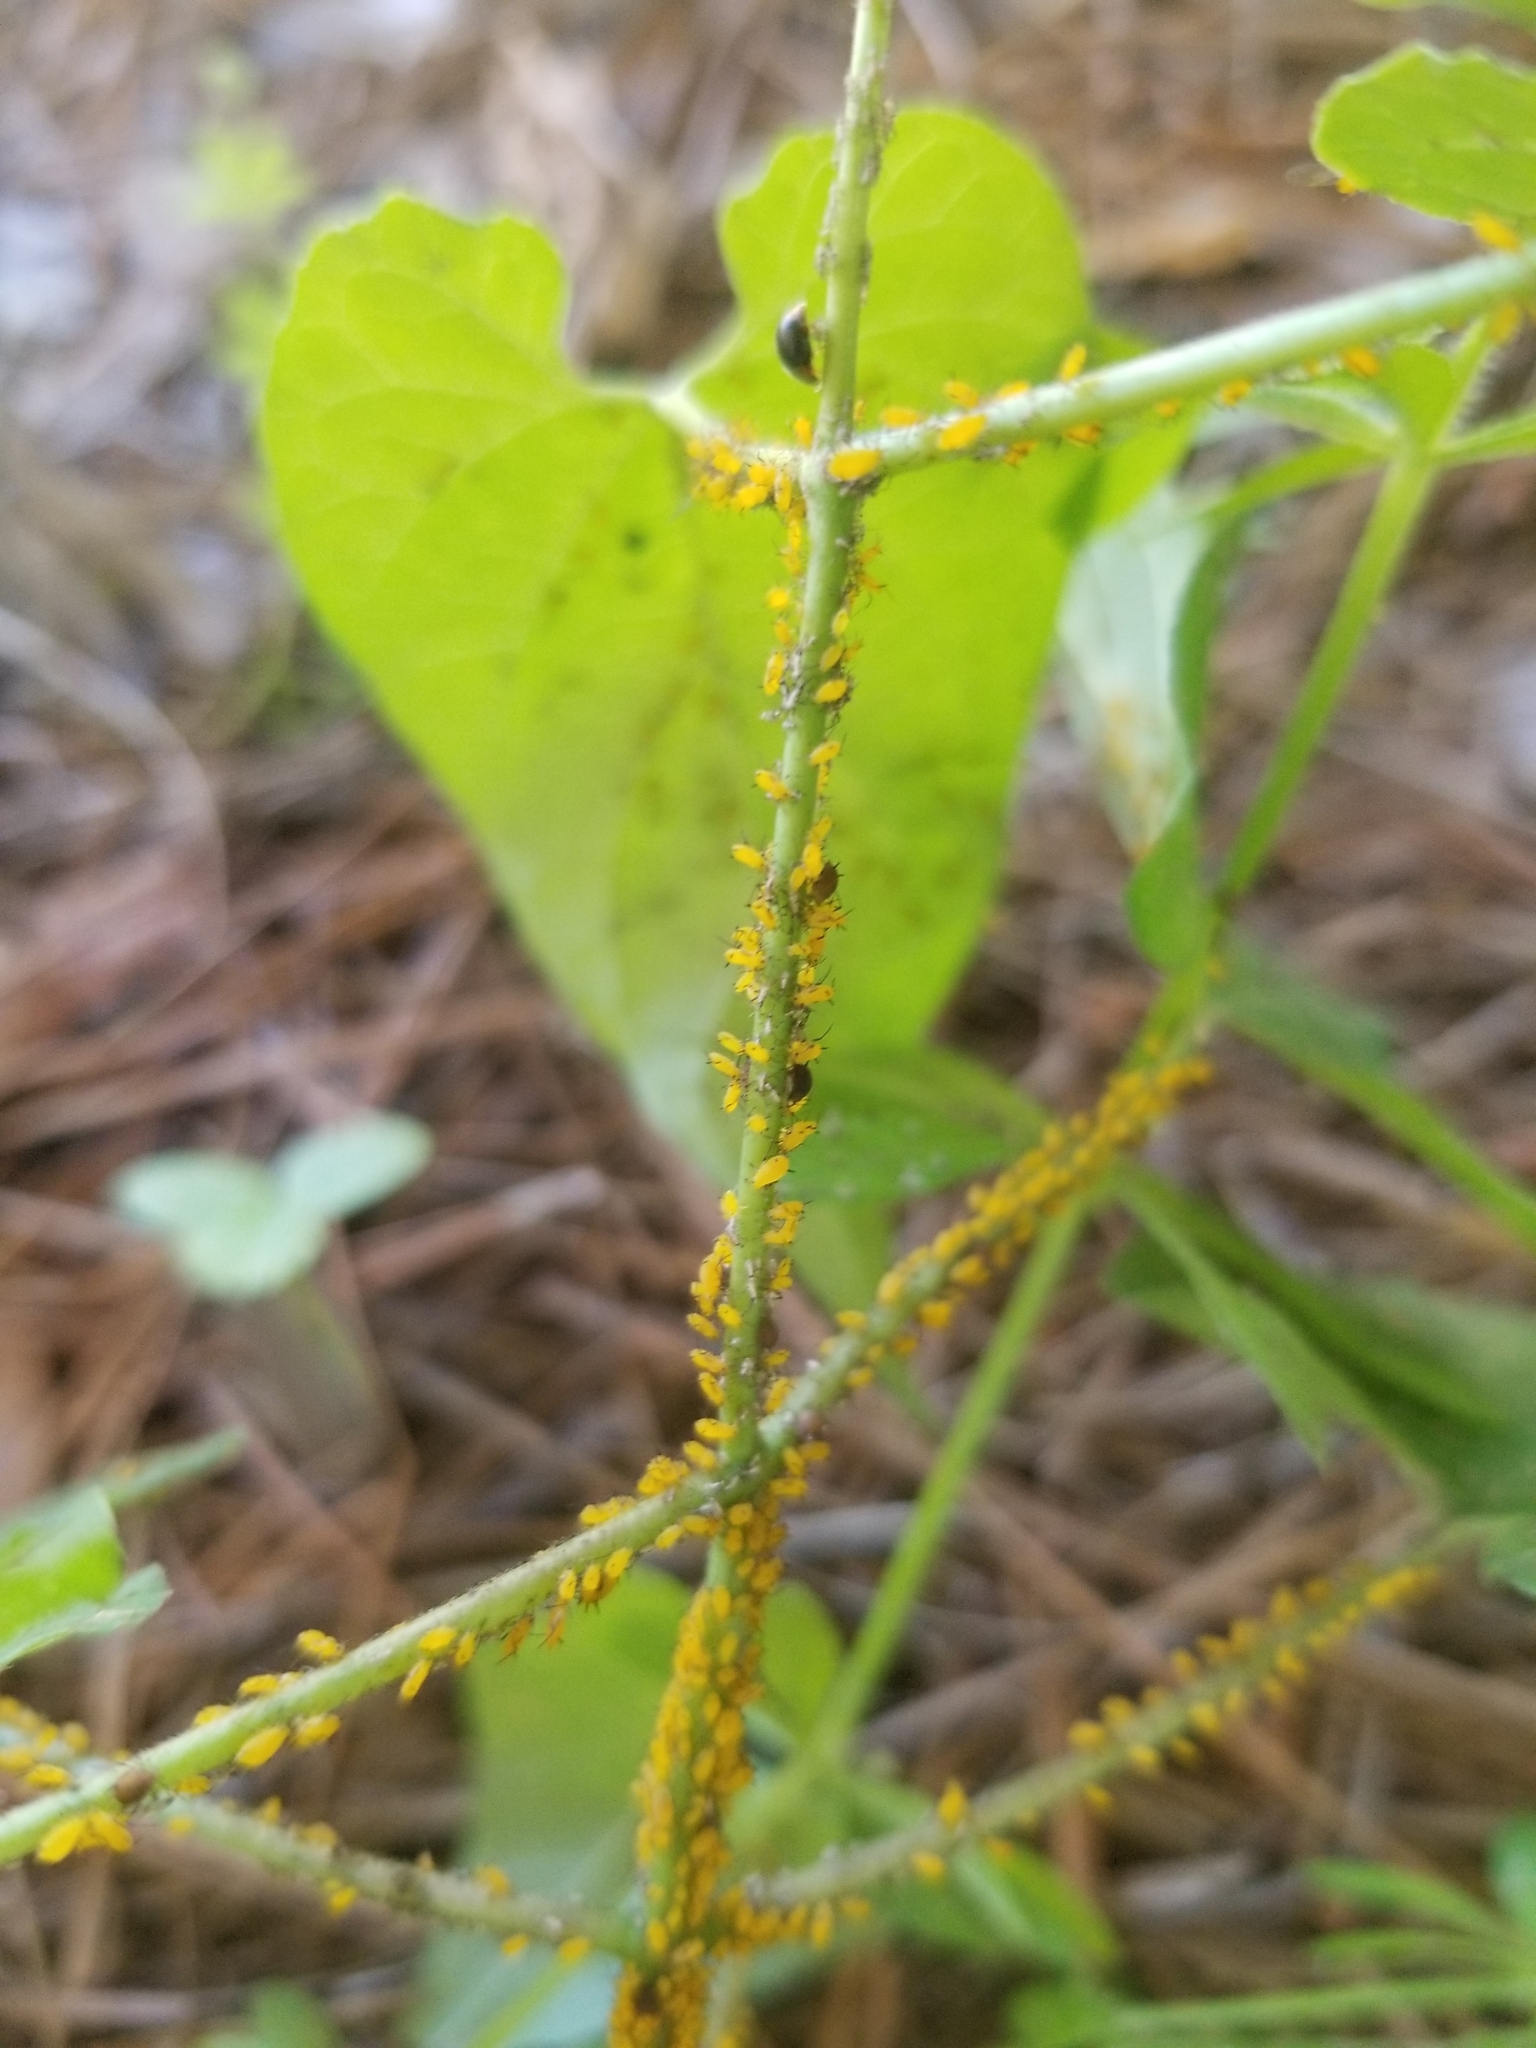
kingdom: Animalia
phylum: Arthropoda
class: Insecta
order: Hemiptera
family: Aphididae
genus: Aphis
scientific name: Aphis nerii
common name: Oleander aphid
